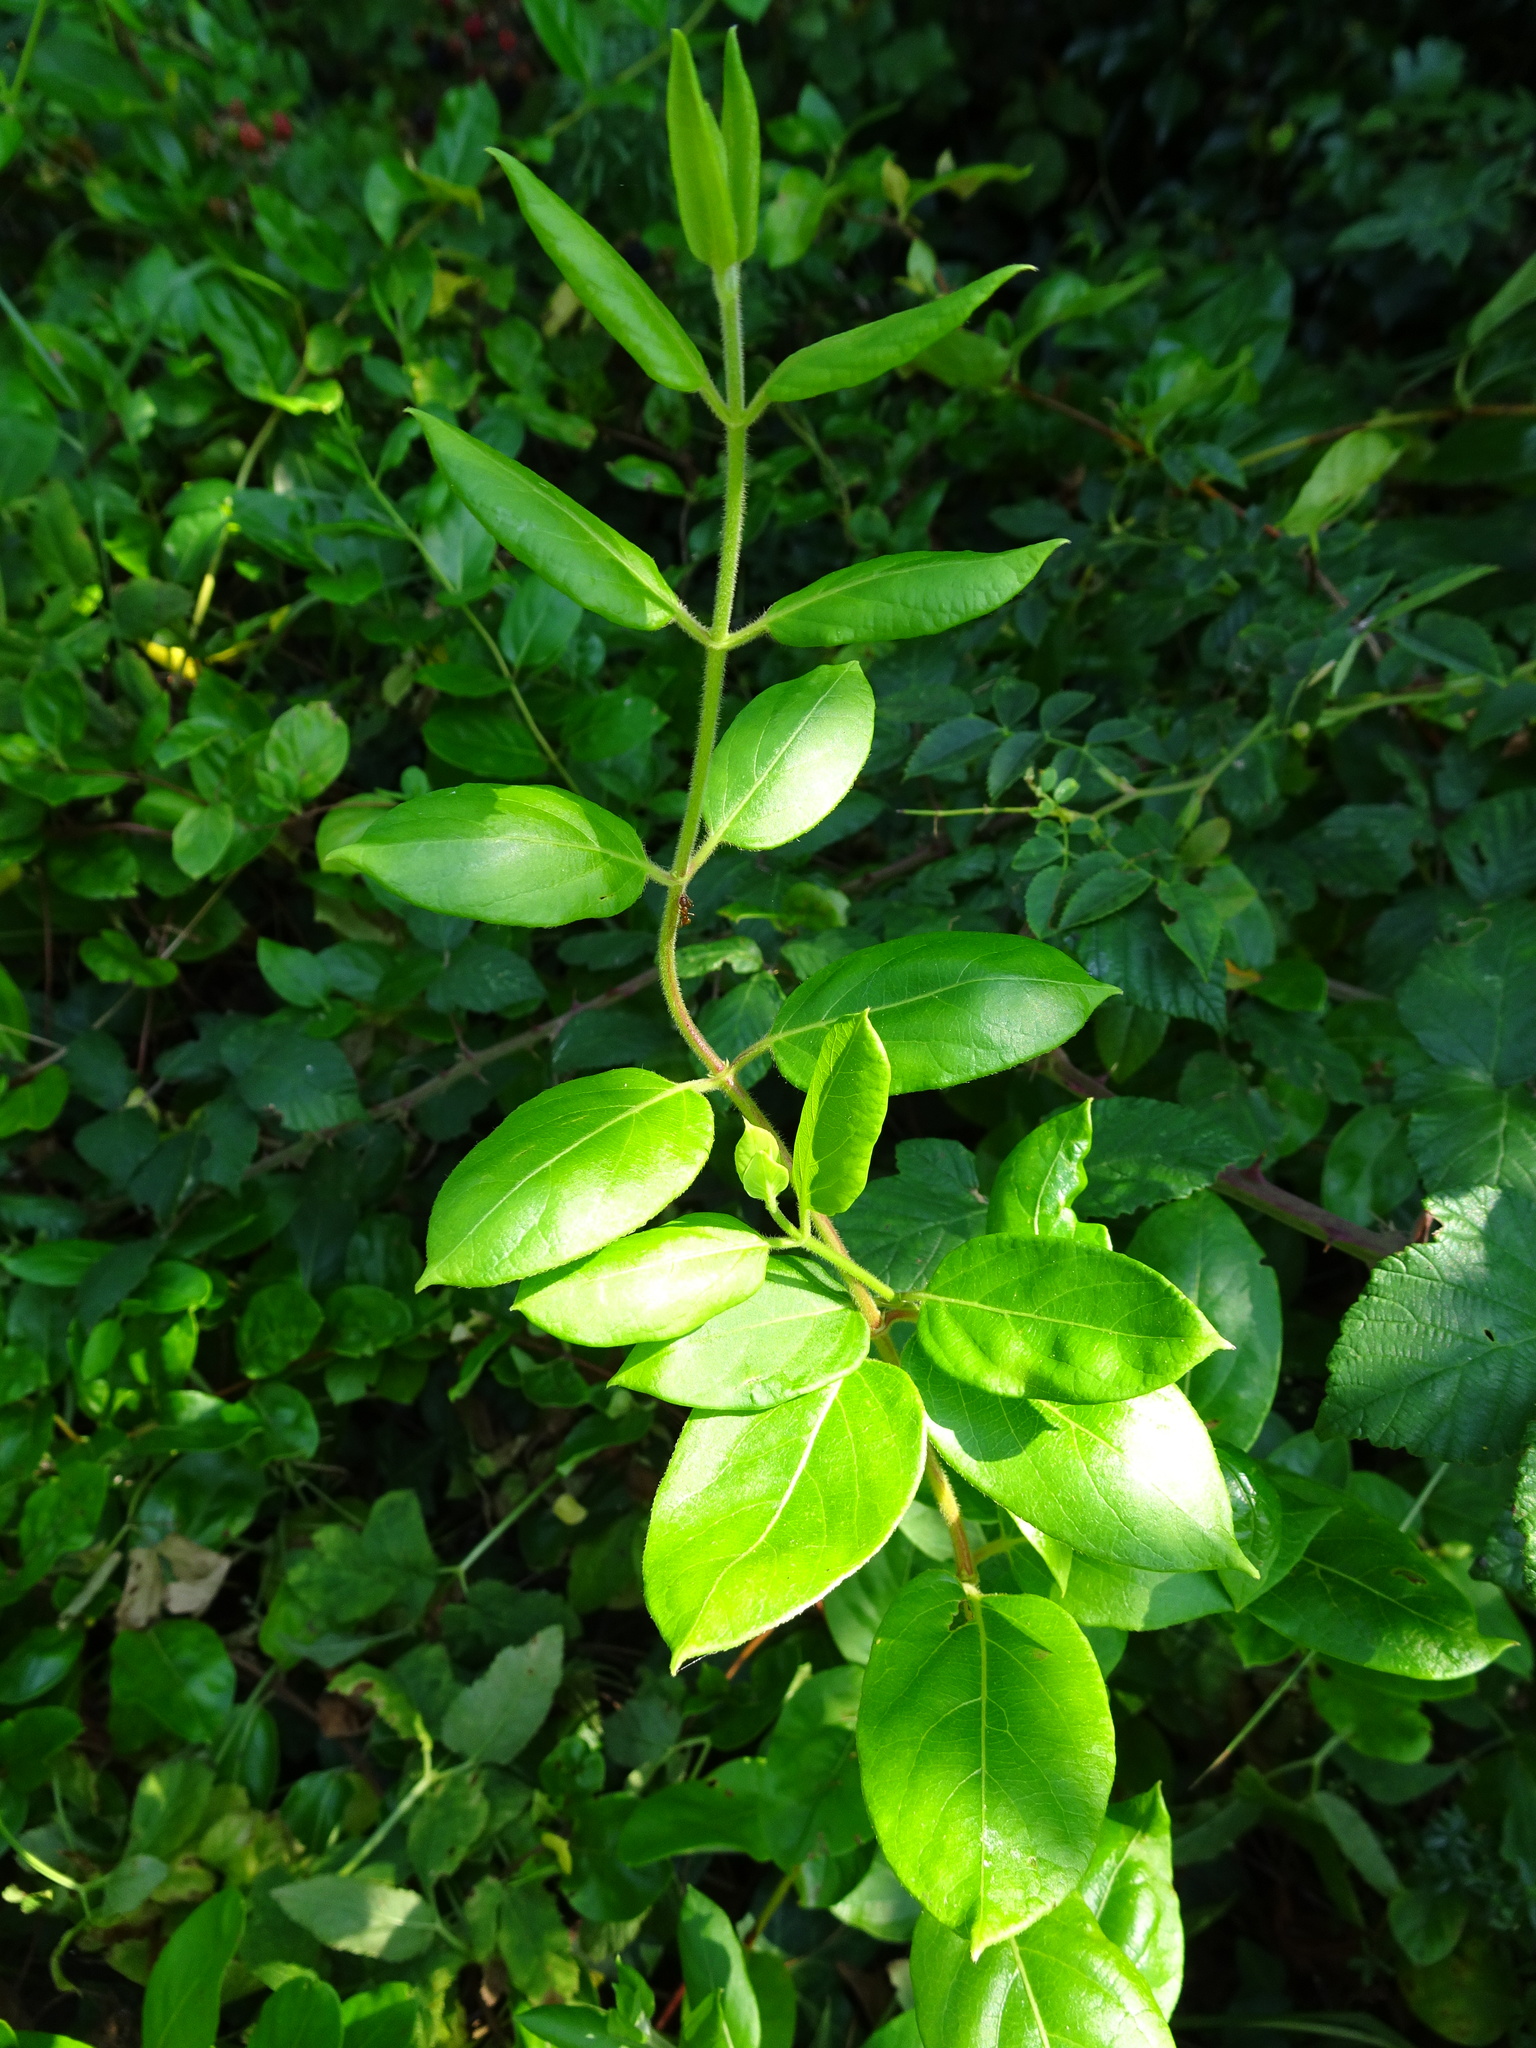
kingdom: Plantae
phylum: Tracheophyta
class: Magnoliopsida
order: Dipsacales
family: Caprifoliaceae
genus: Lonicera
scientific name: Lonicera japonica
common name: Japanese honeysuckle
